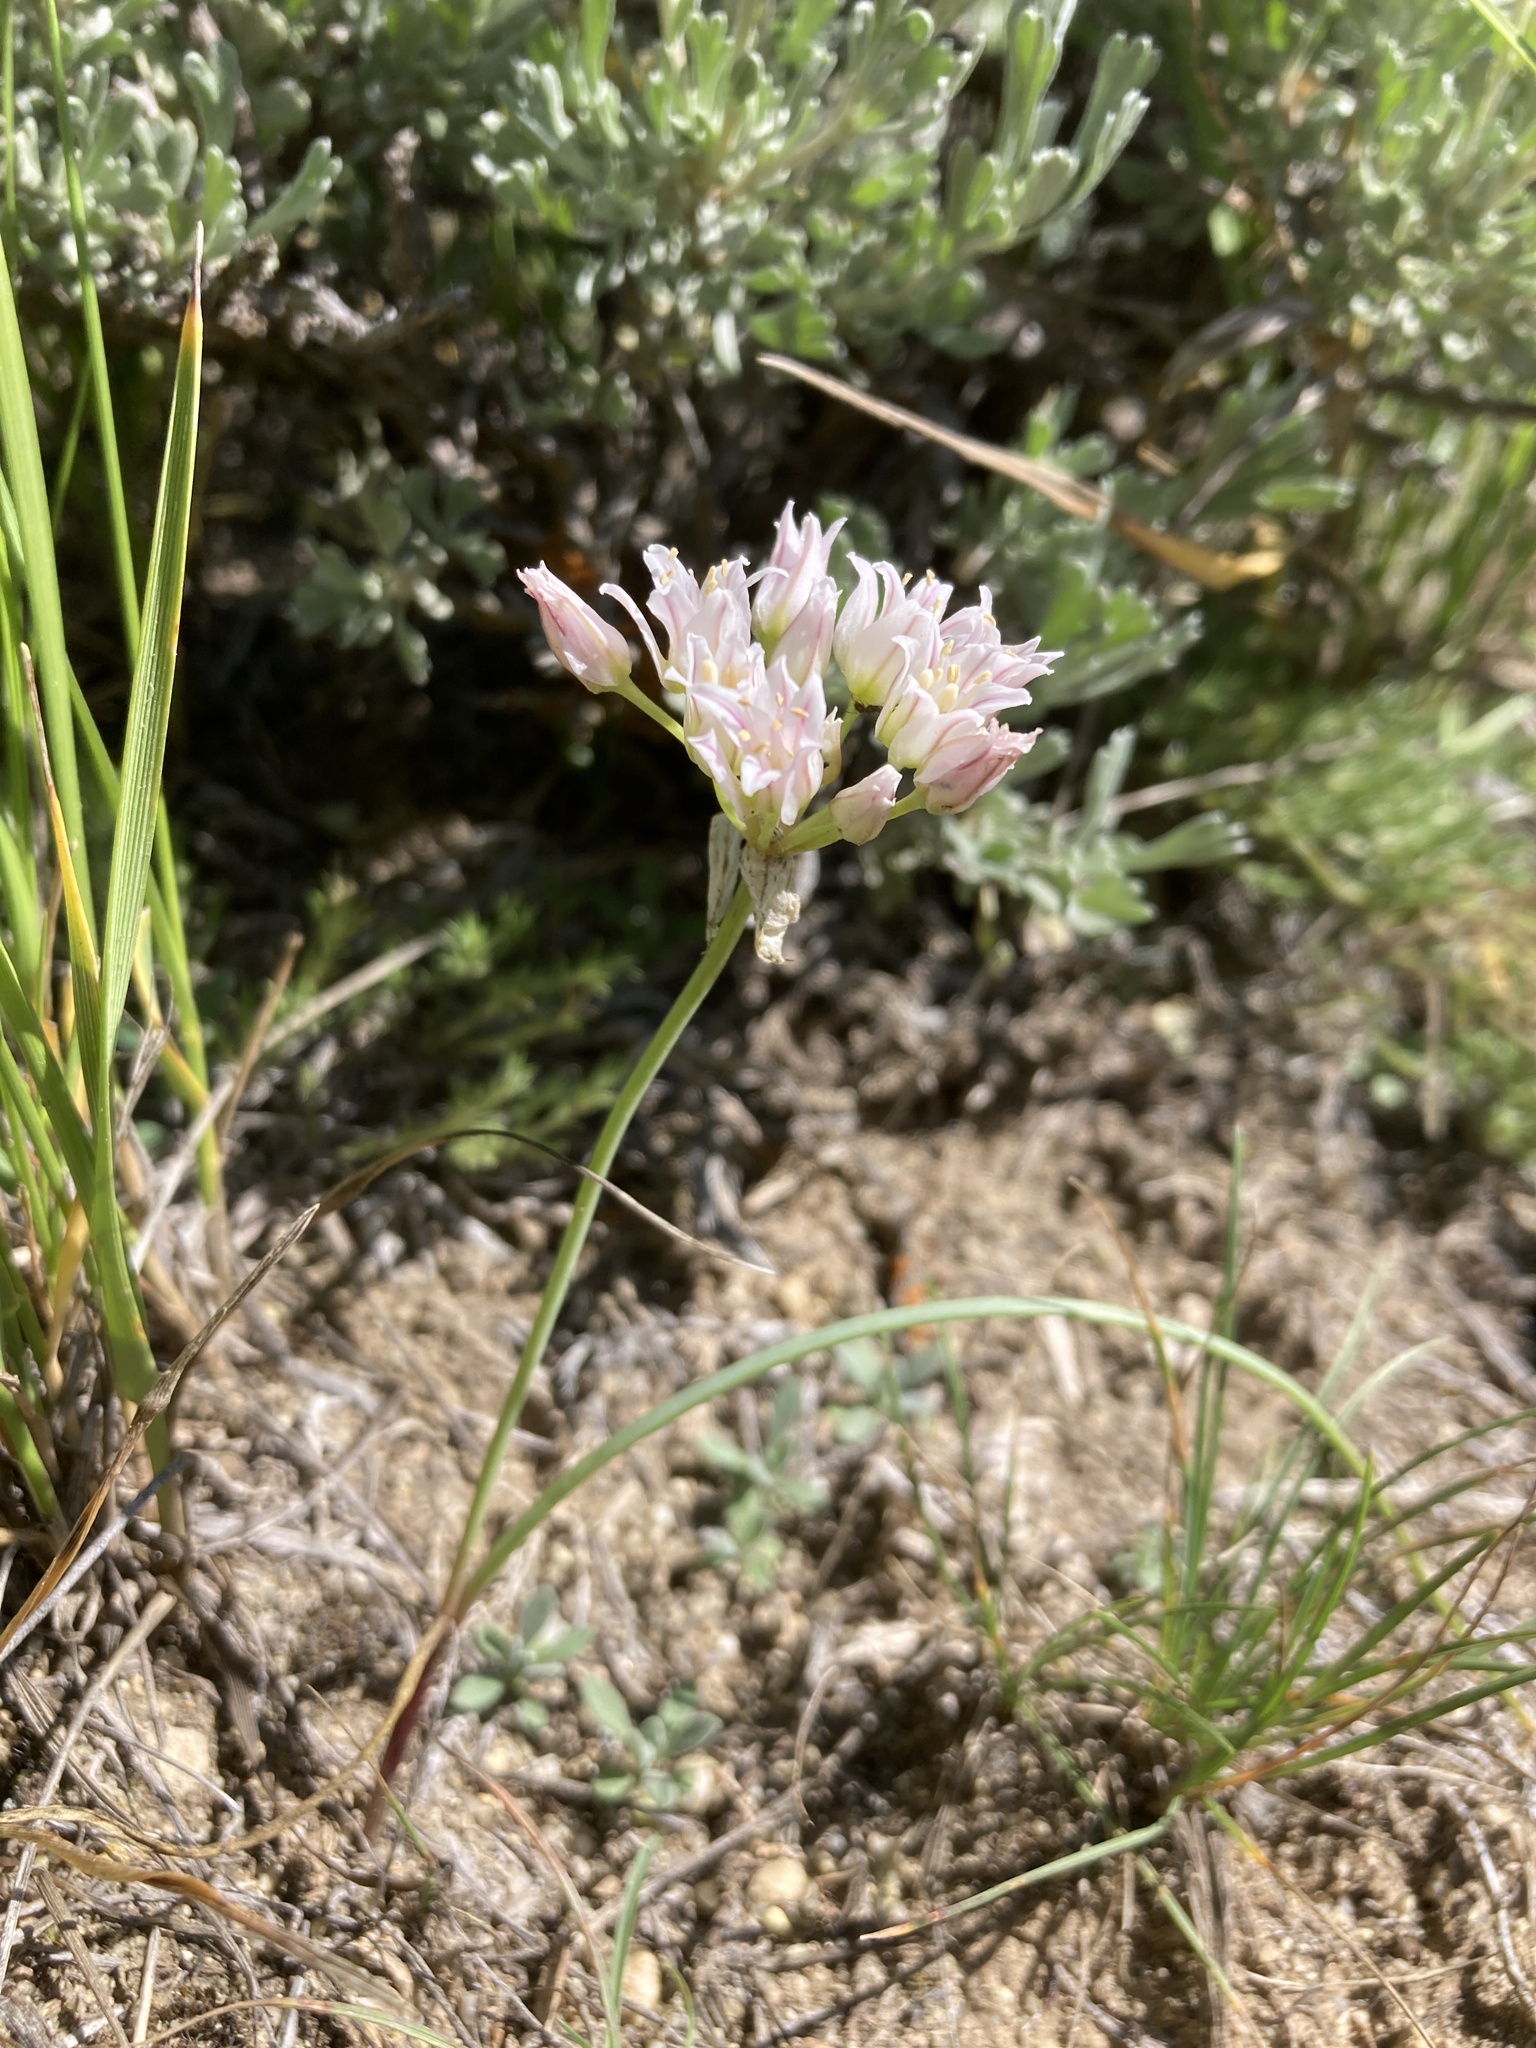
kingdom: Plantae
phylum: Tracheophyta
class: Liliopsida
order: Asparagales
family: Amaryllidaceae
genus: Allium
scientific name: Allium textile
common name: Prairie onion
